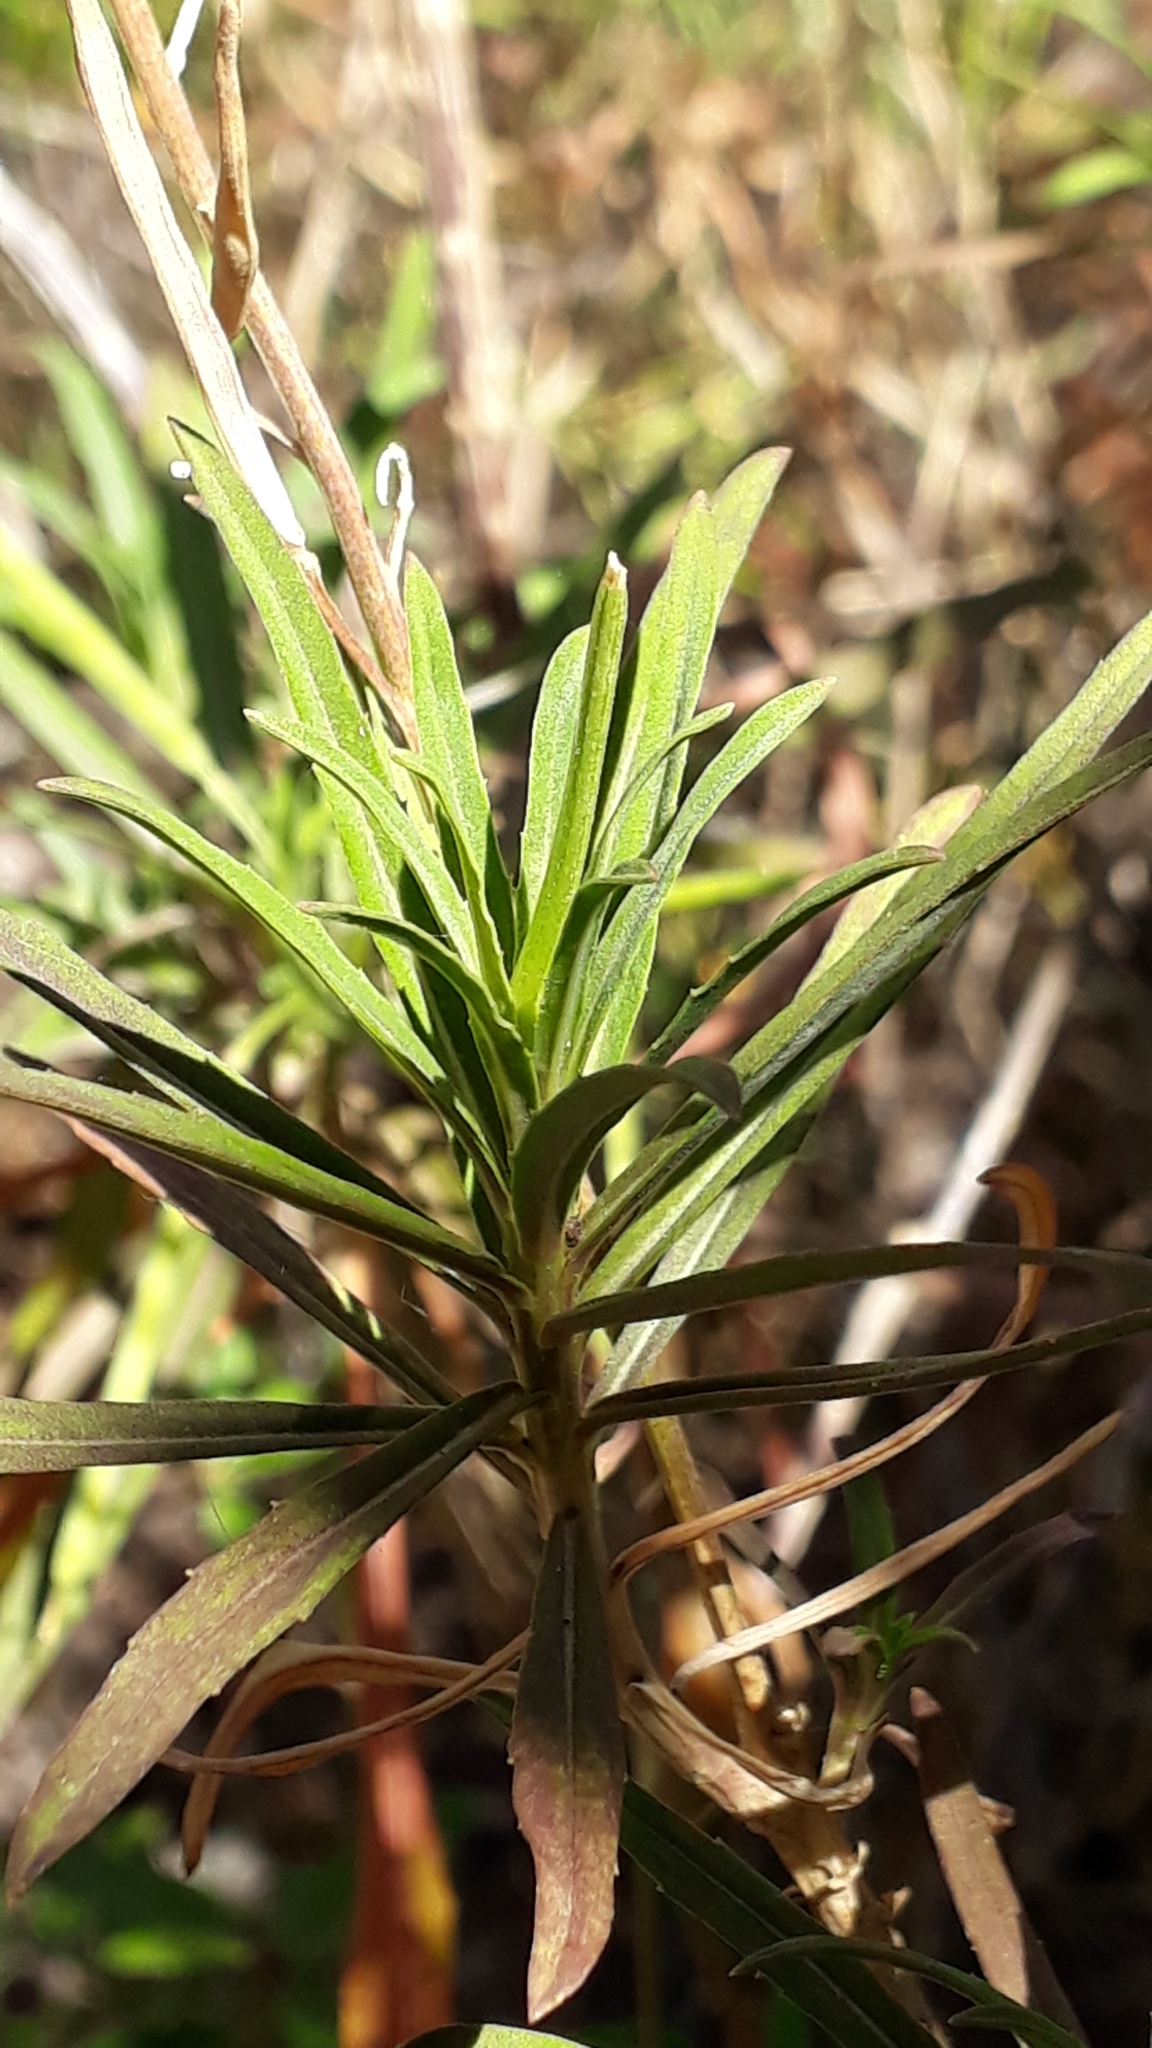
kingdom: Plantae
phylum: Tracheophyta
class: Magnoliopsida
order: Brassicales
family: Brassicaceae
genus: Erysimum
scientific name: Erysimum bicolor
